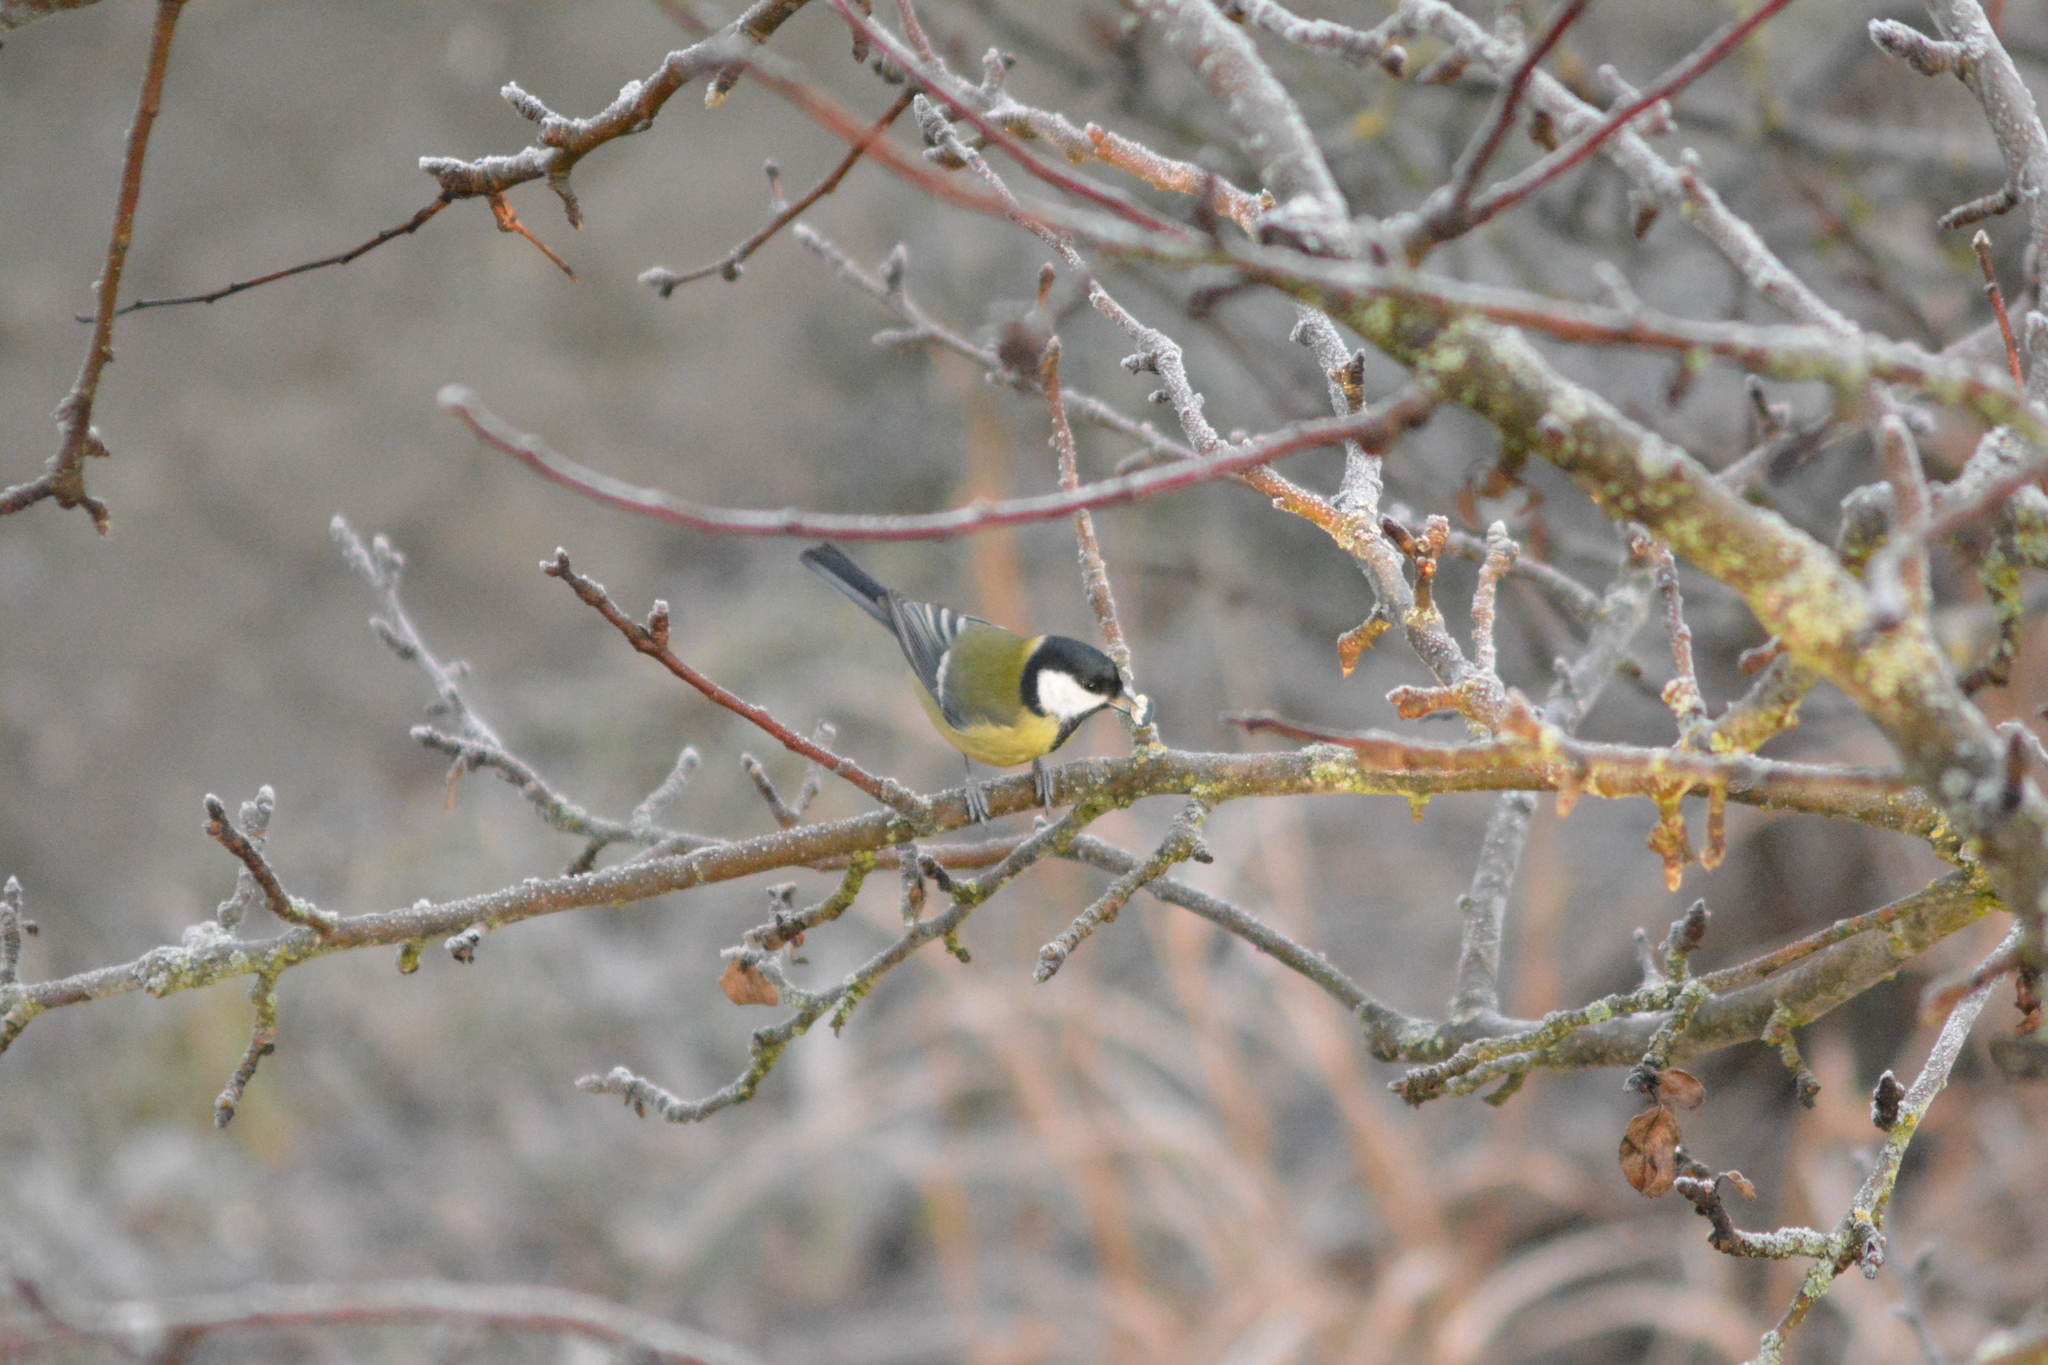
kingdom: Animalia
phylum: Chordata
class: Aves
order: Passeriformes
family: Paridae
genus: Parus
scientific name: Parus major
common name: Great tit
